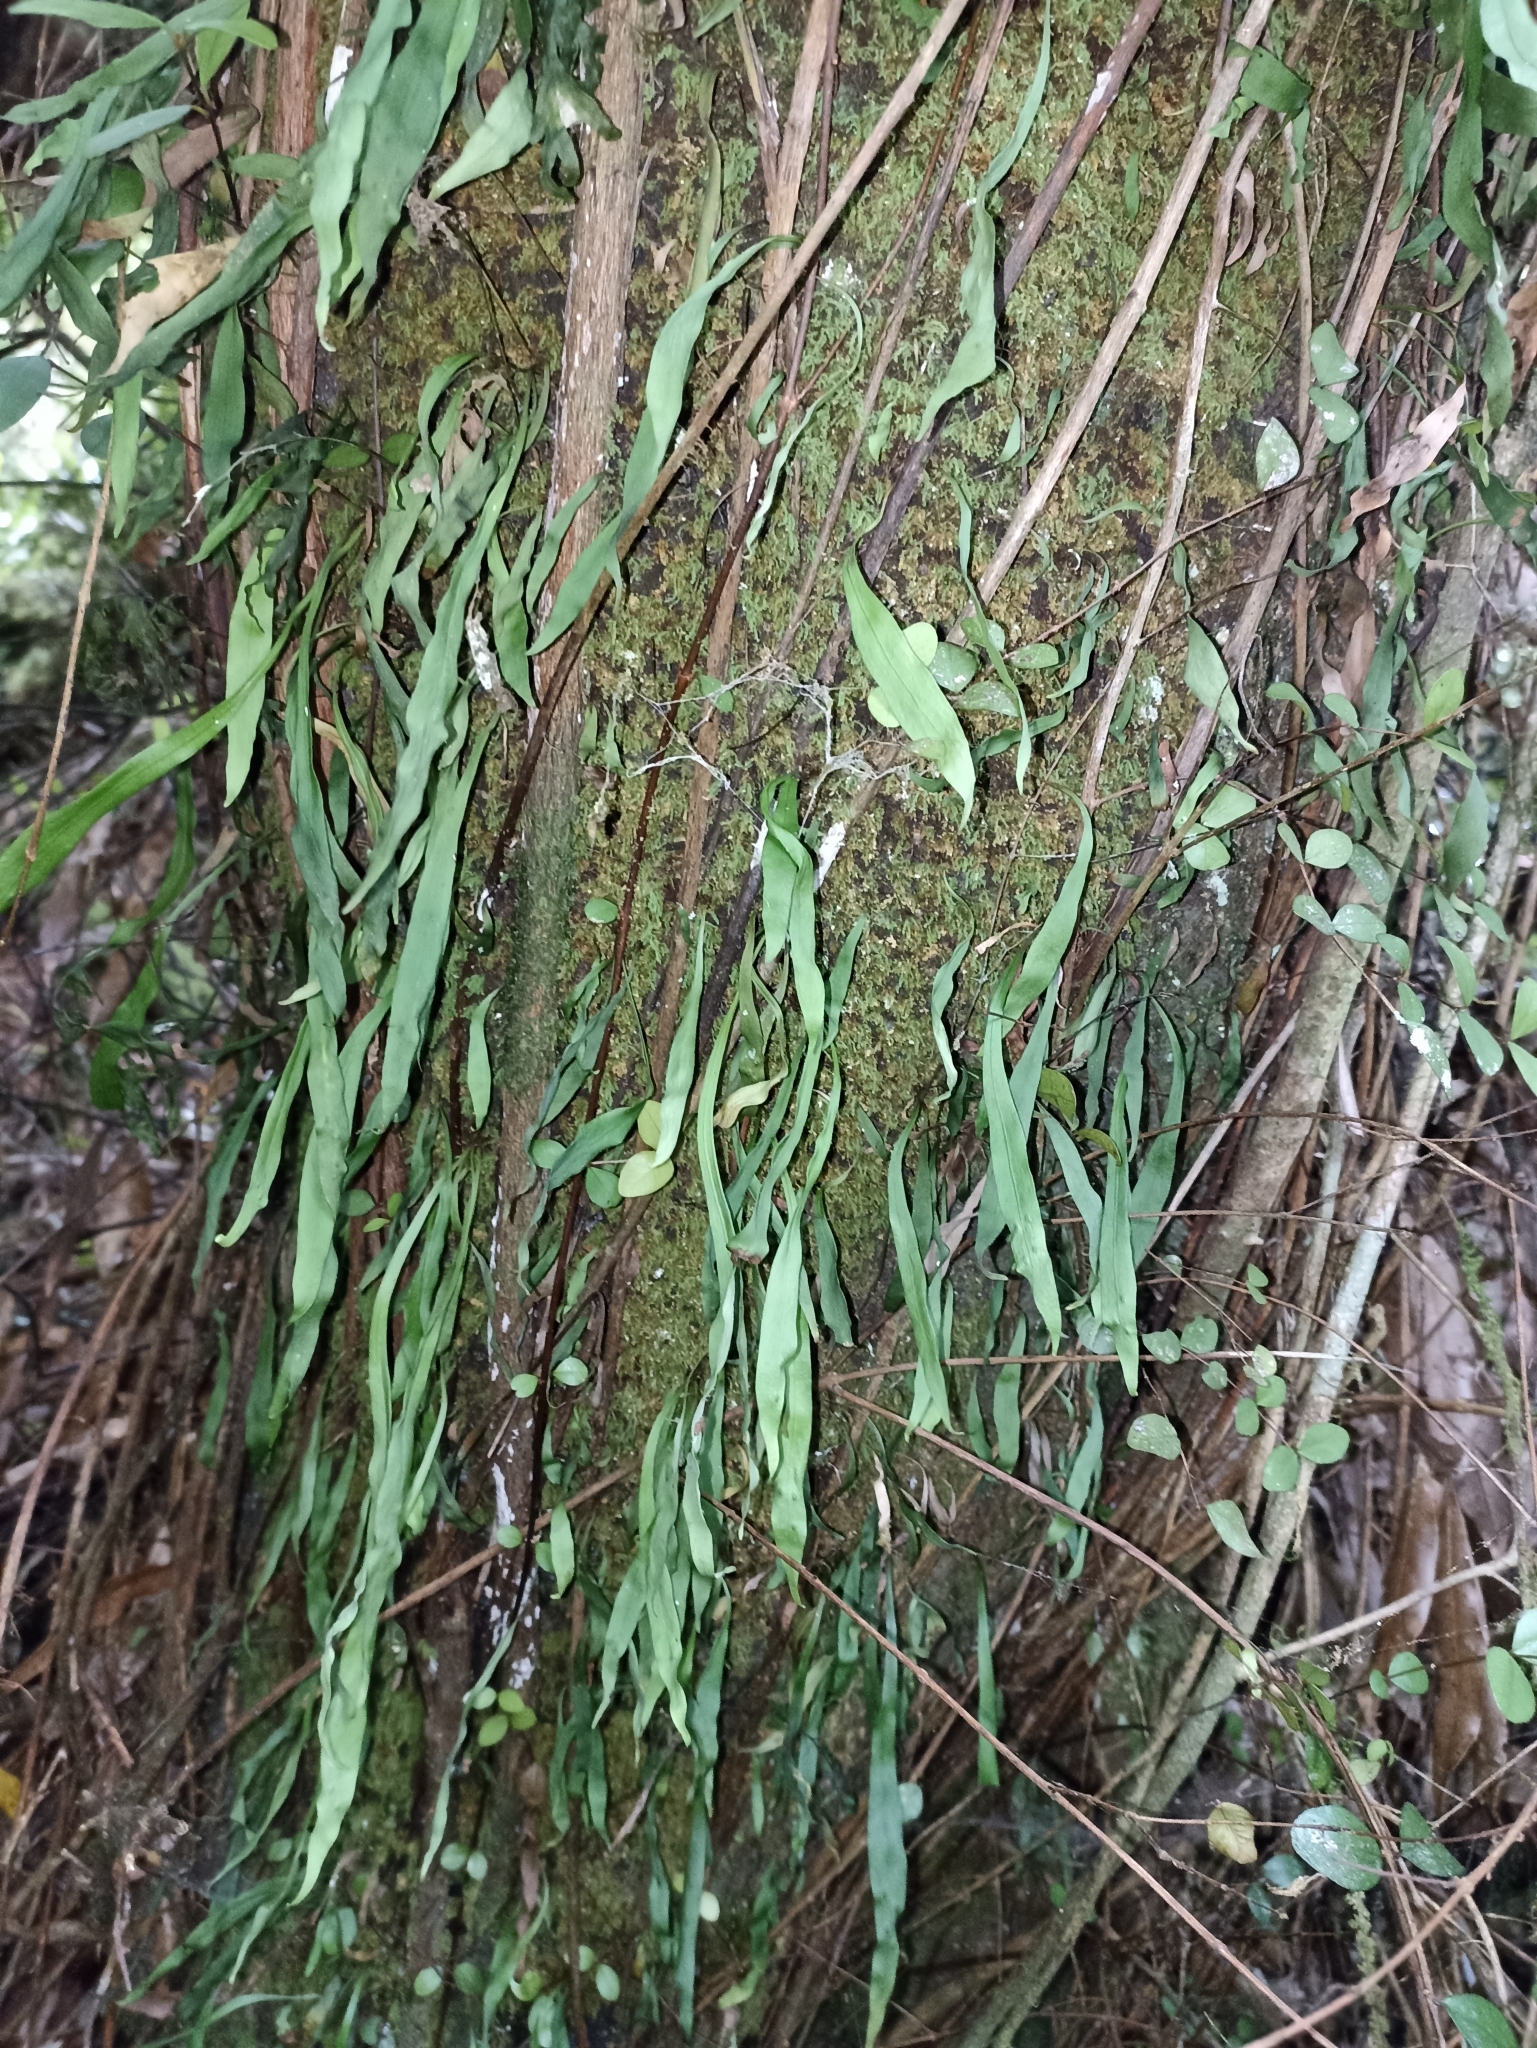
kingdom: Plantae
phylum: Tracheophyta
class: Polypodiopsida
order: Polypodiales
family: Polypodiaceae
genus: Loxogramme
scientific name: Loxogramme dictyopteris
